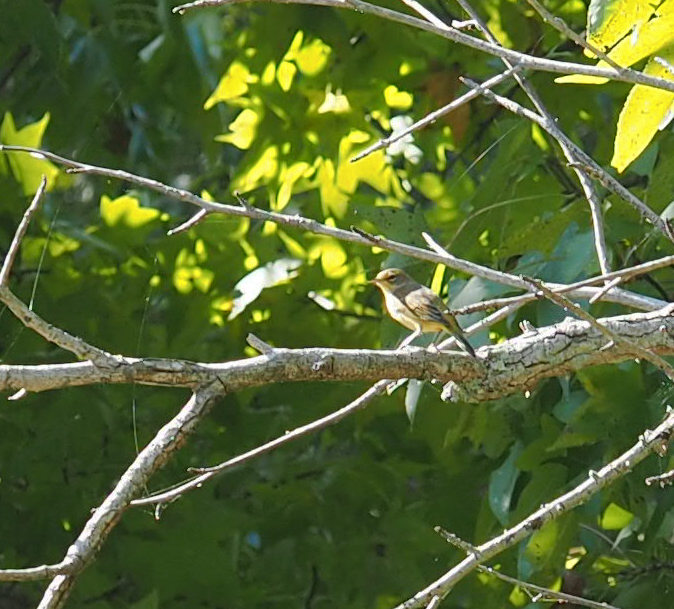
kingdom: Animalia
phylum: Chordata
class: Aves
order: Passeriformes
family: Parulidae
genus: Setophaga
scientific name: Setophaga palmarum
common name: Palm warbler
